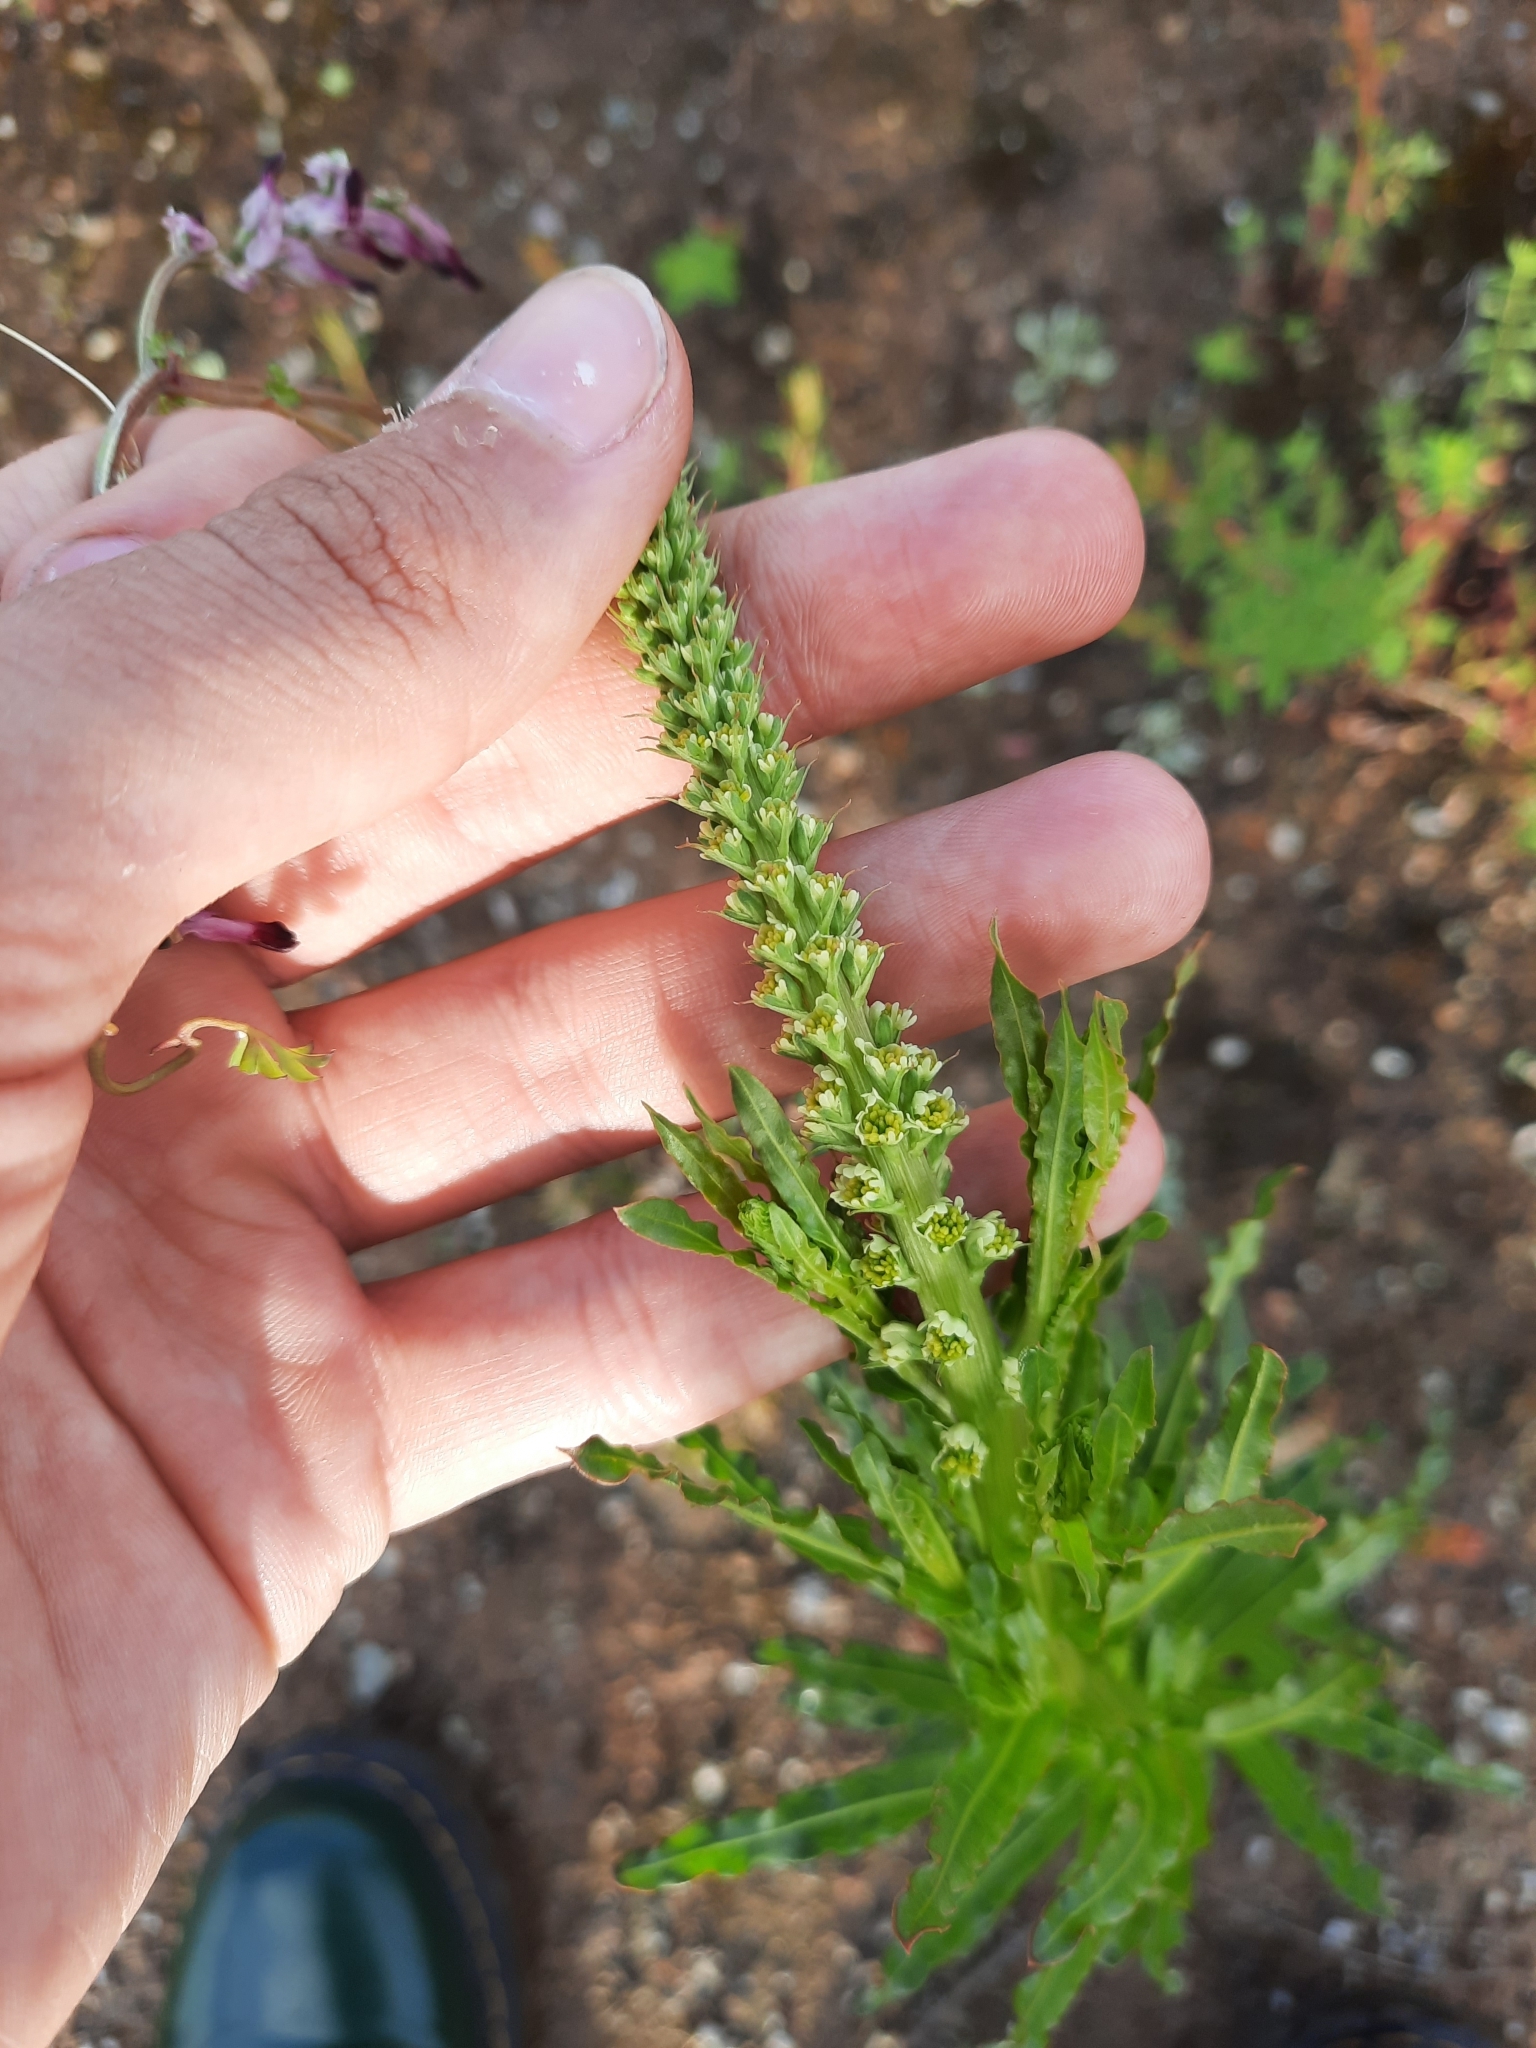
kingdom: Plantae
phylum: Tracheophyta
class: Magnoliopsida
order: Brassicales
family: Resedaceae
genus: Reseda
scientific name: Reseda luteola
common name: Weld
